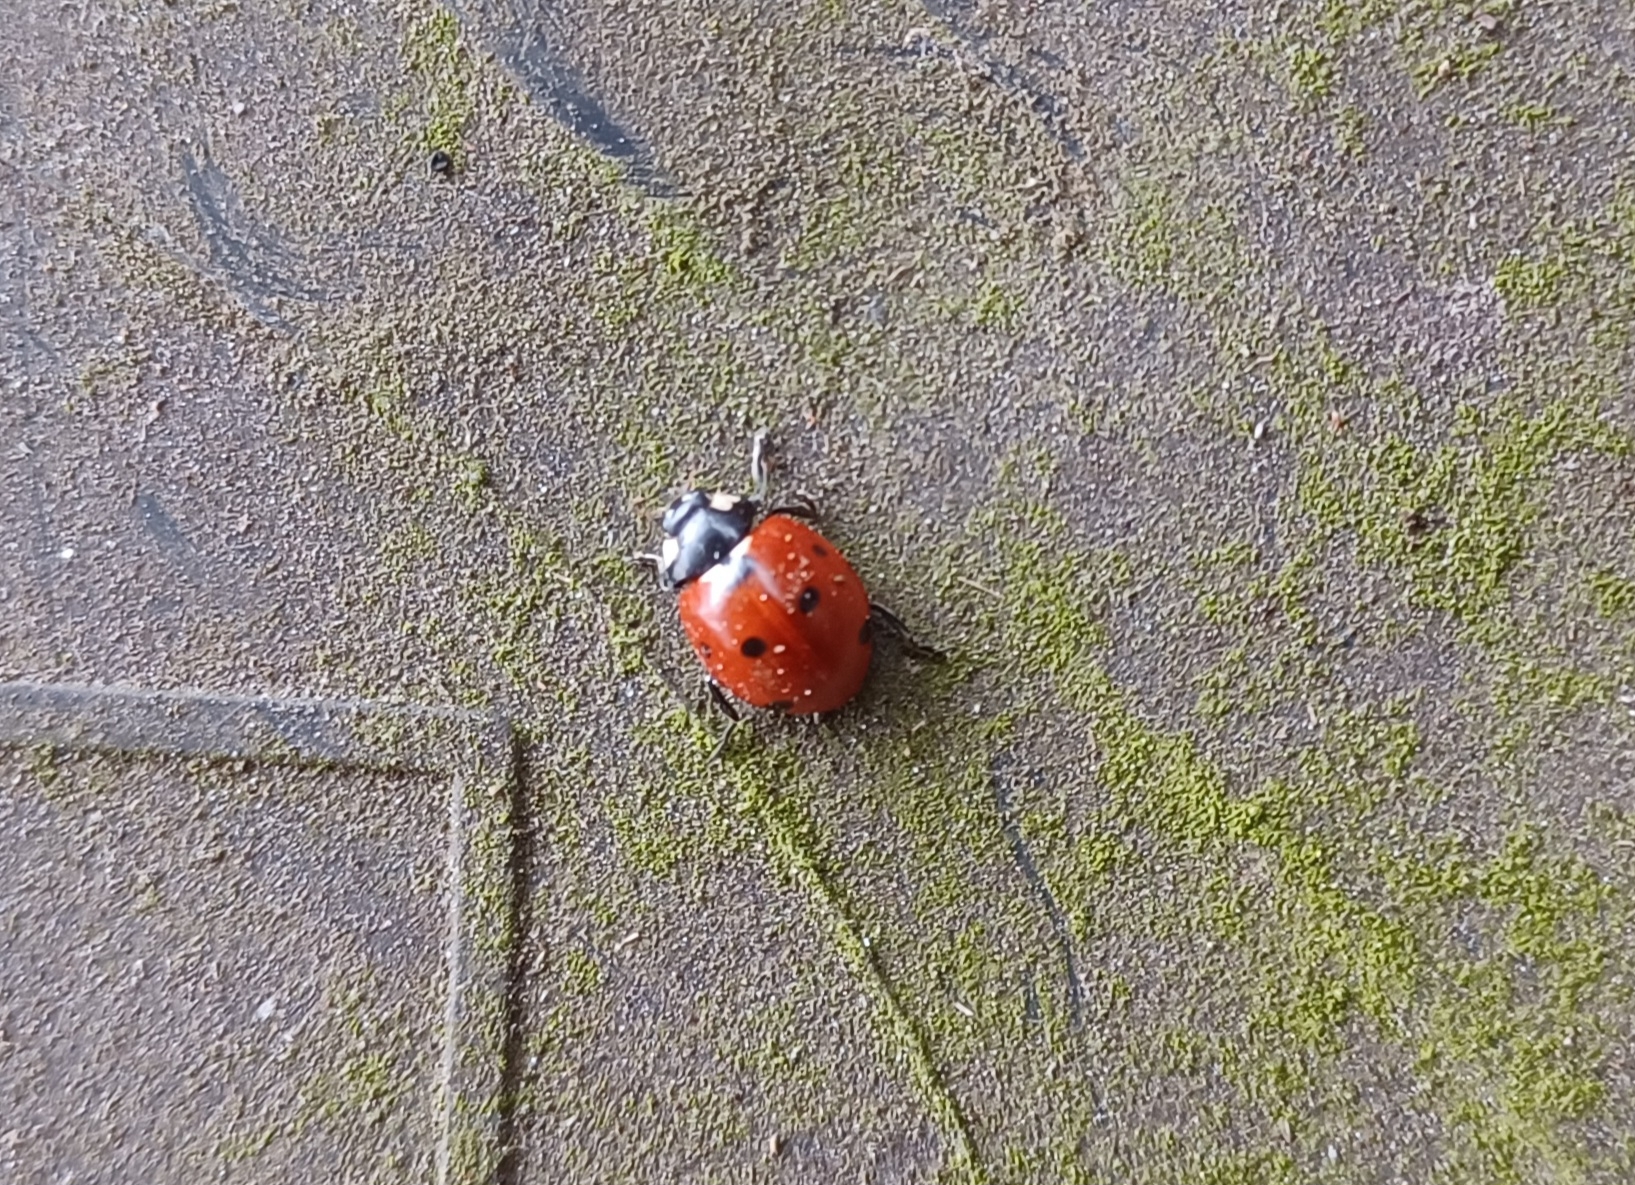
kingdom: Animalia
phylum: Arthropoda
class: Insecta
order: Coleoptera
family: Coccinellidae
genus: Coccinella
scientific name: Coccinella septempunctata
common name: Sevenspotted lady beetle
